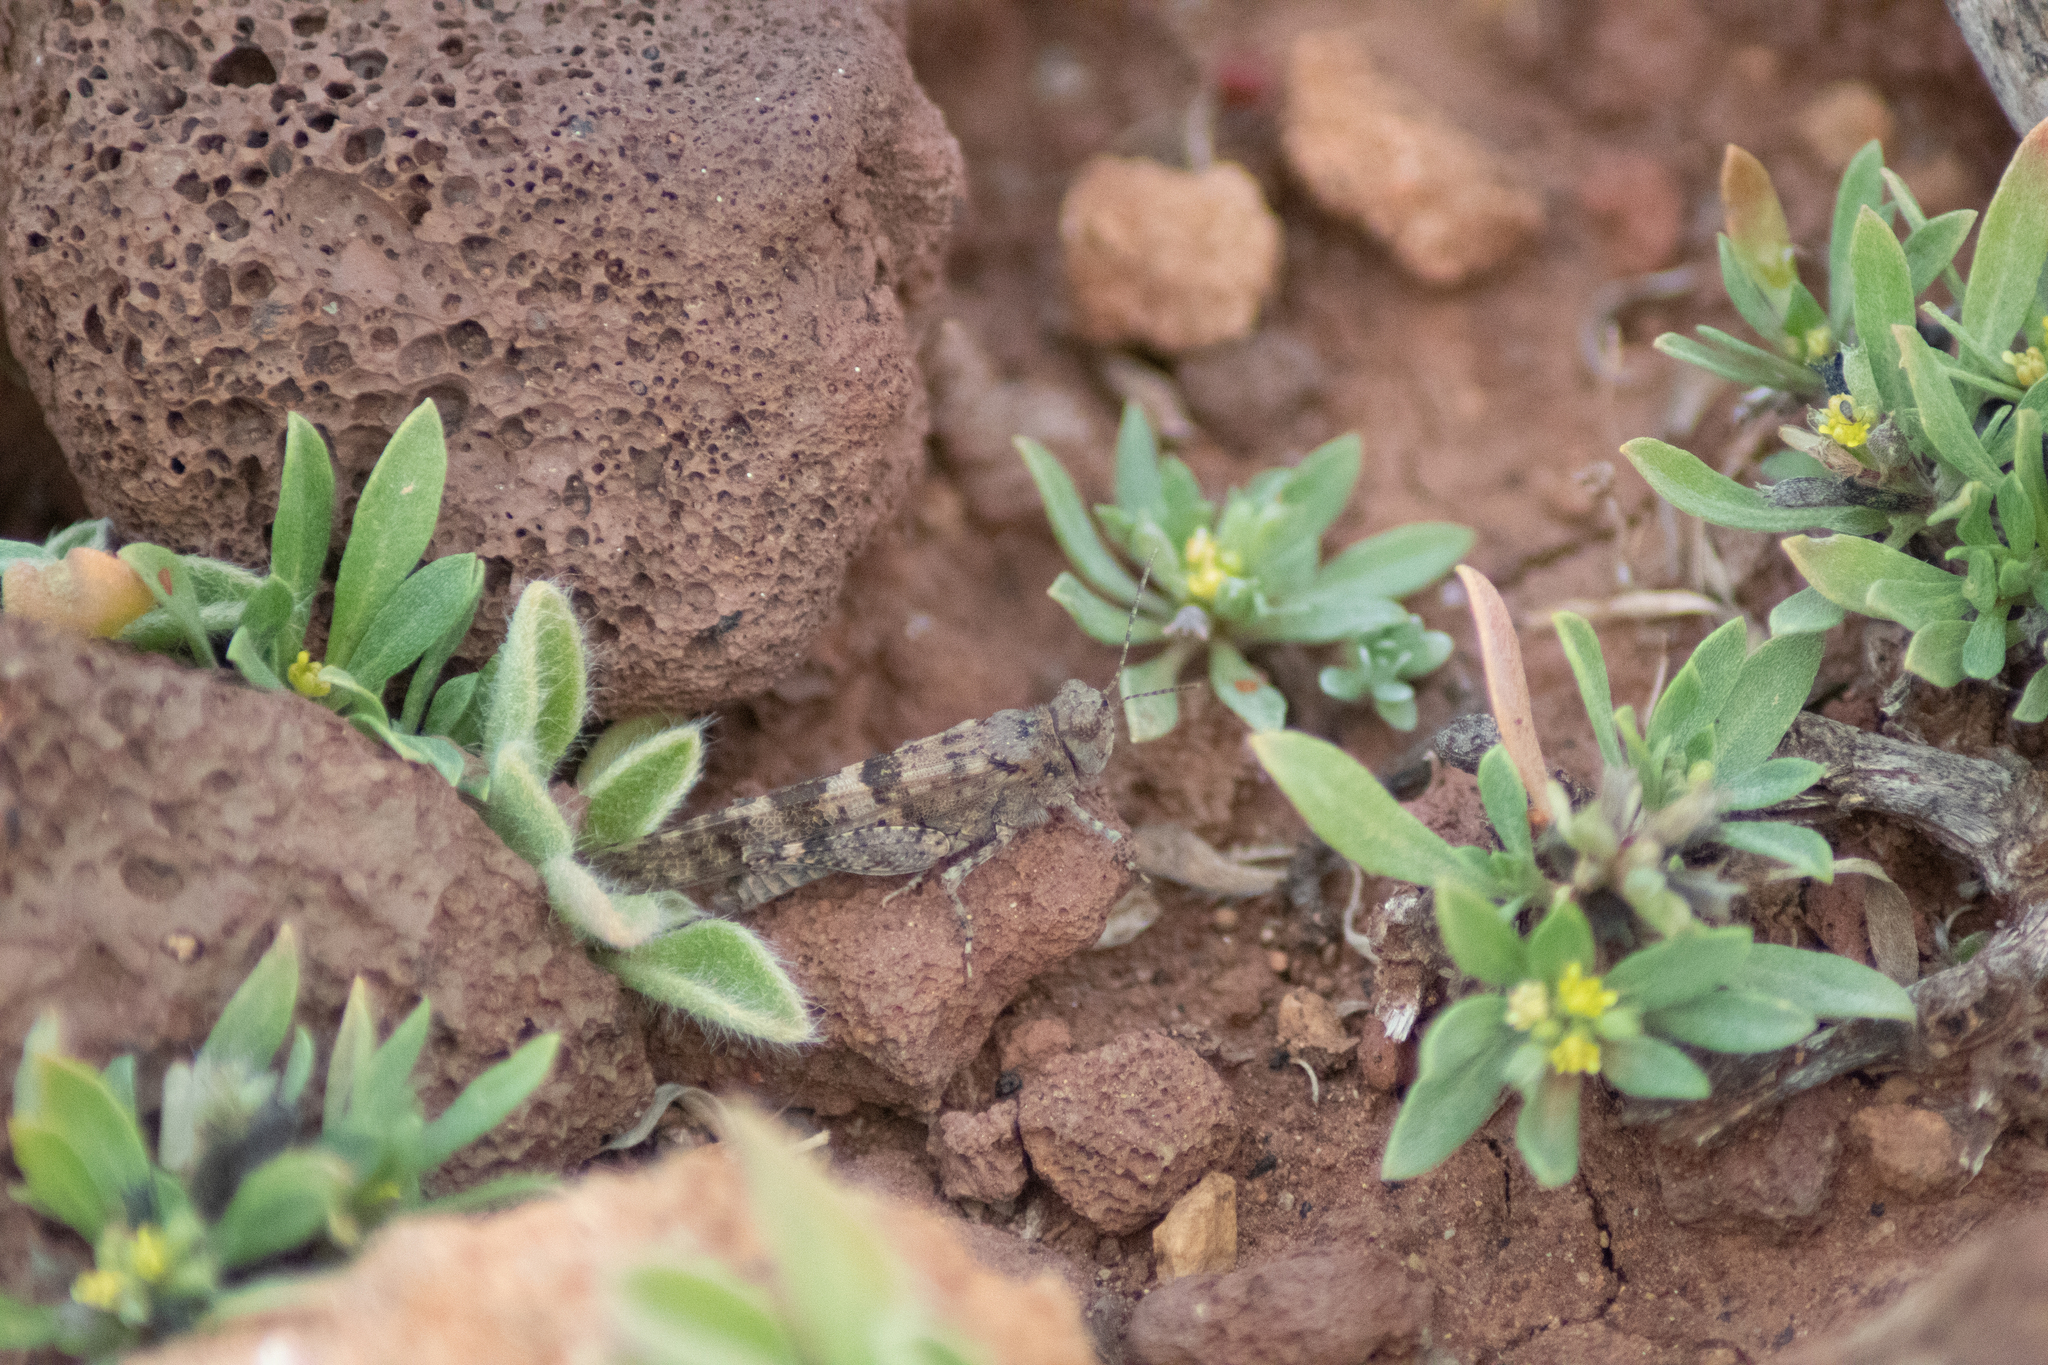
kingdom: Animalia
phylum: Arthropoda
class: Insecta
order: Orthoptera
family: Acrididae
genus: Sphingonotus
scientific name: Sphingonotus rubescens
